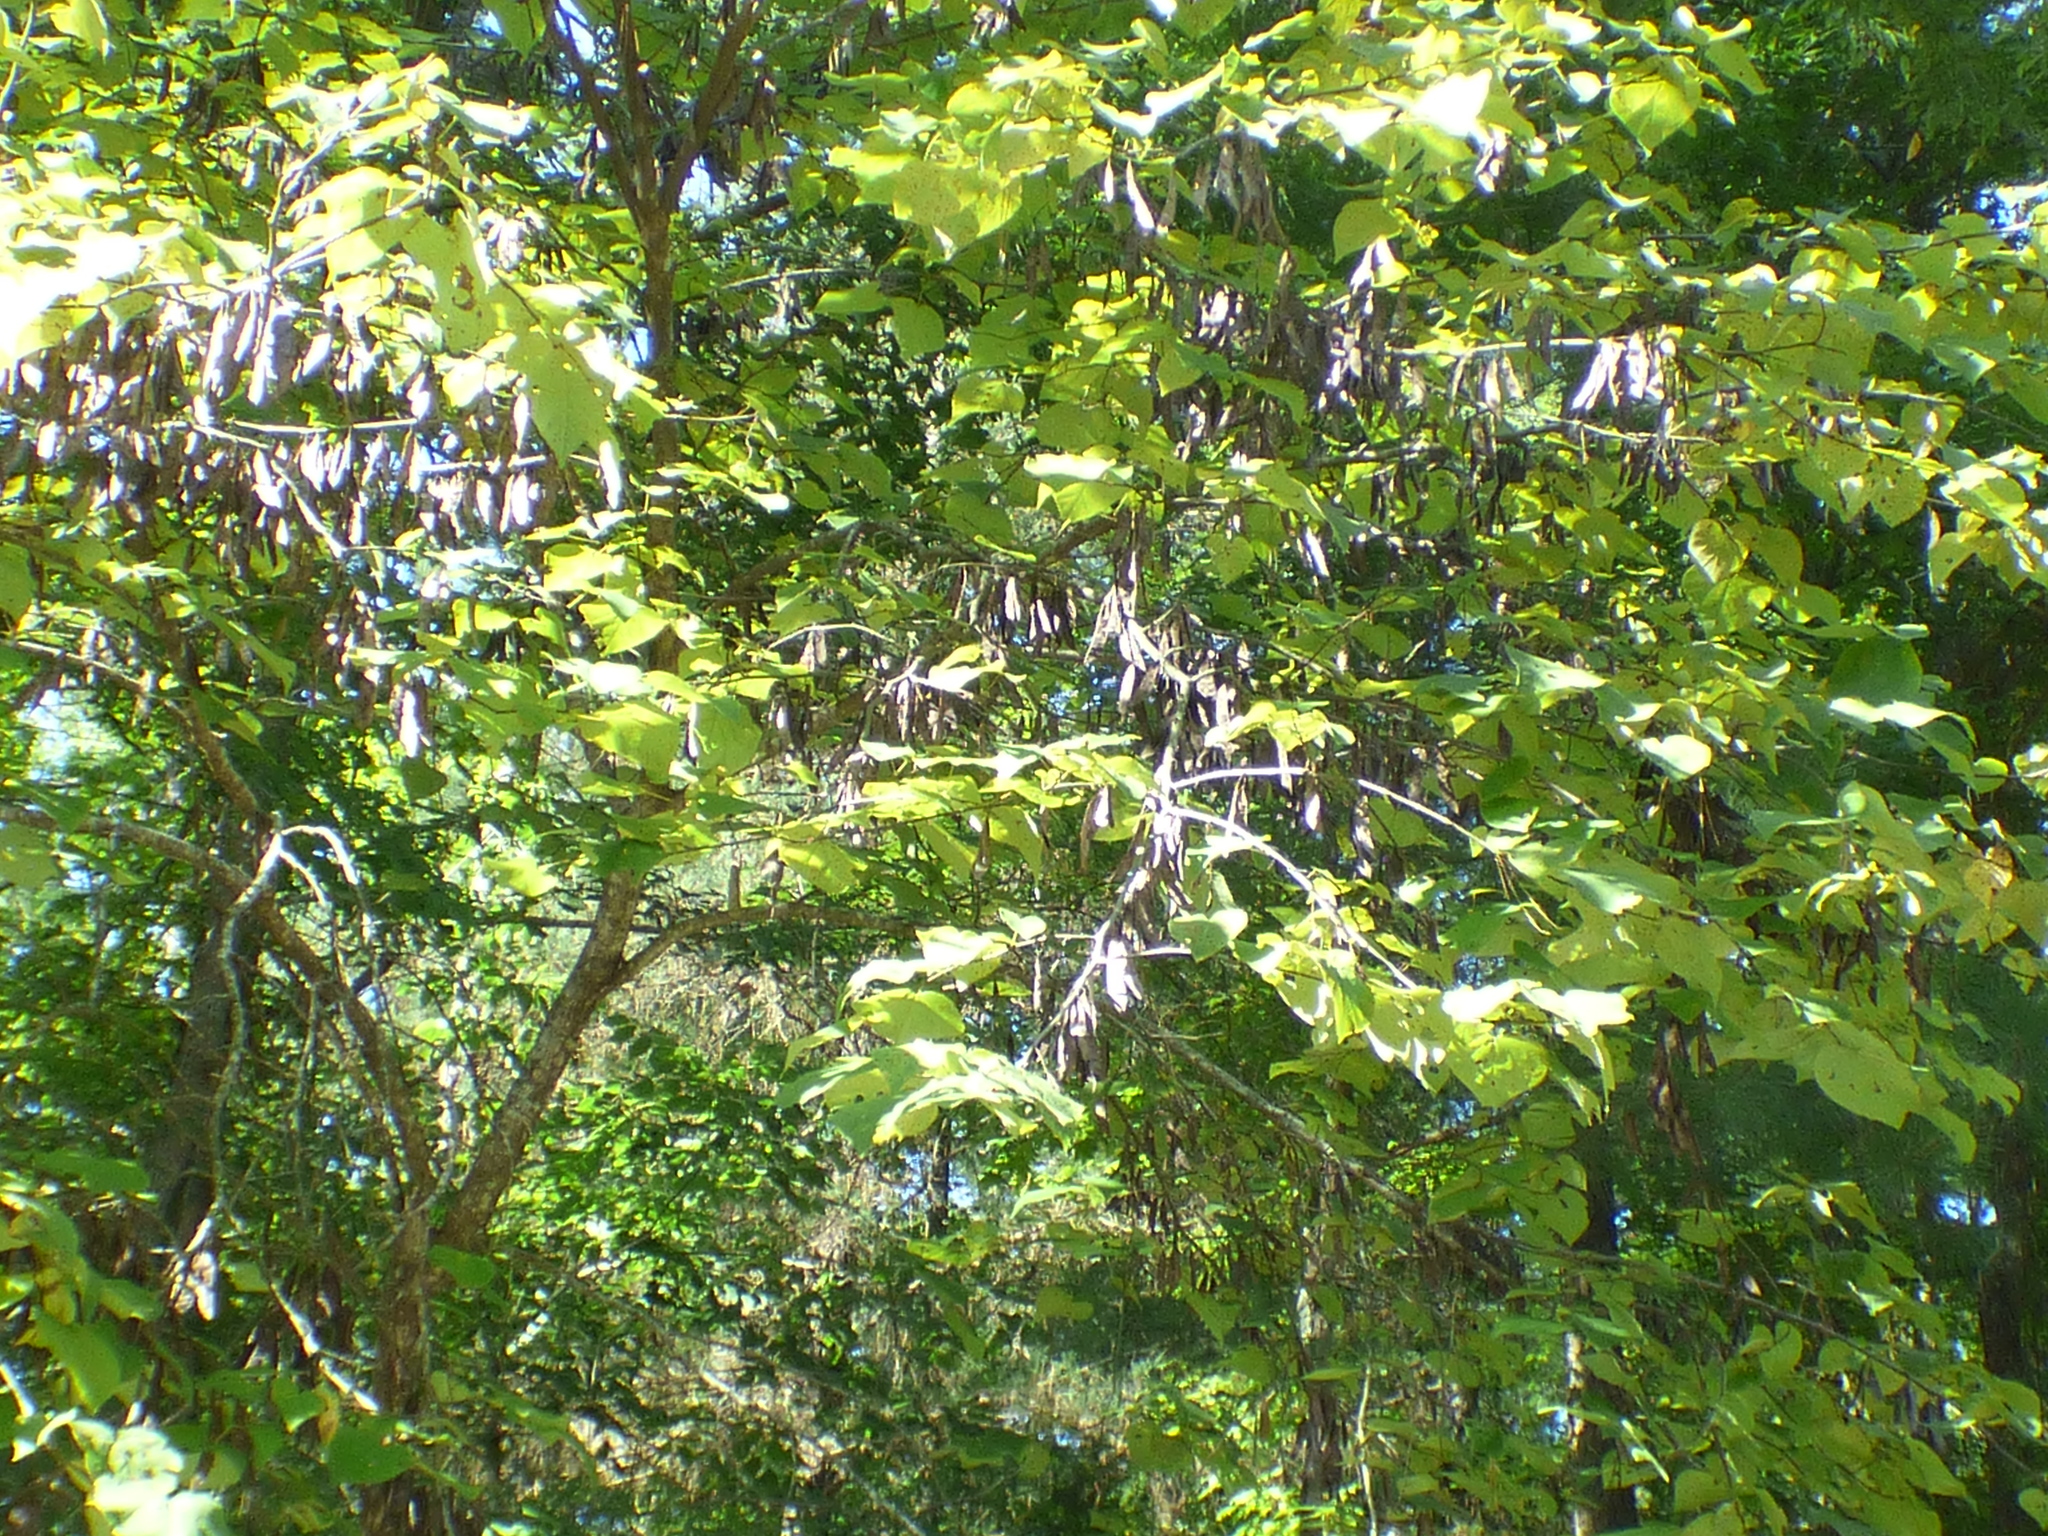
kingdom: Plantae
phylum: Tracheophyta
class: Magnoliopsida
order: Fabales
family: Fabaceae
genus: Cercis
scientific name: Cercis canadensis
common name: Eastern redbud
